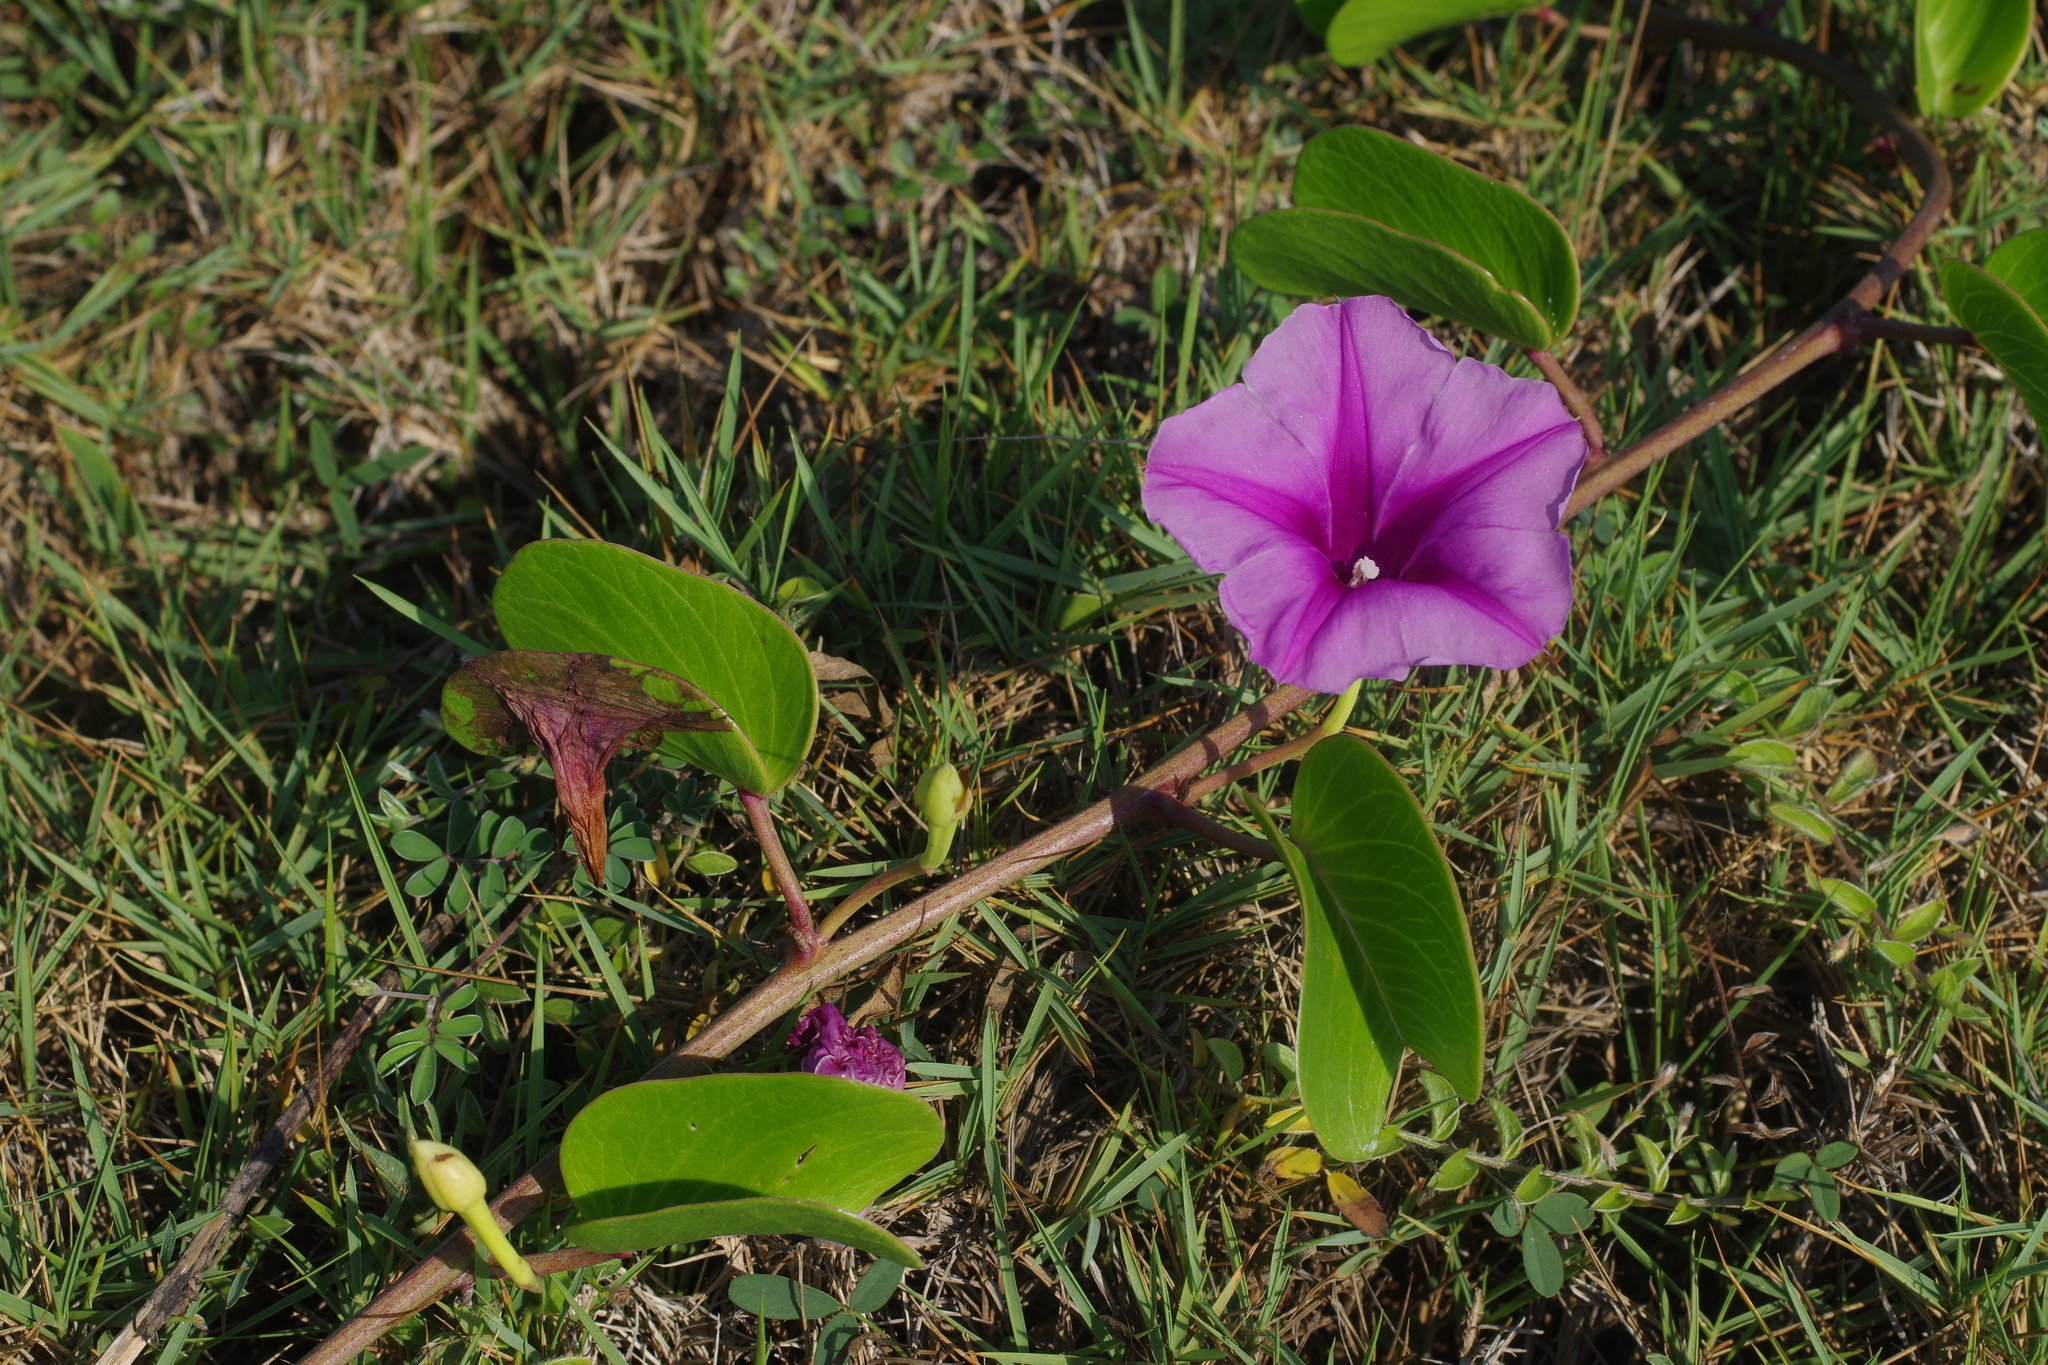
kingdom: Plantae
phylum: Tracheophyta
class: Magnoliopsida
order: Solanales
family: Convolvulaceae
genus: Ipomoea
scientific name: Ipomoea pes-caprae
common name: Beach morning glory
